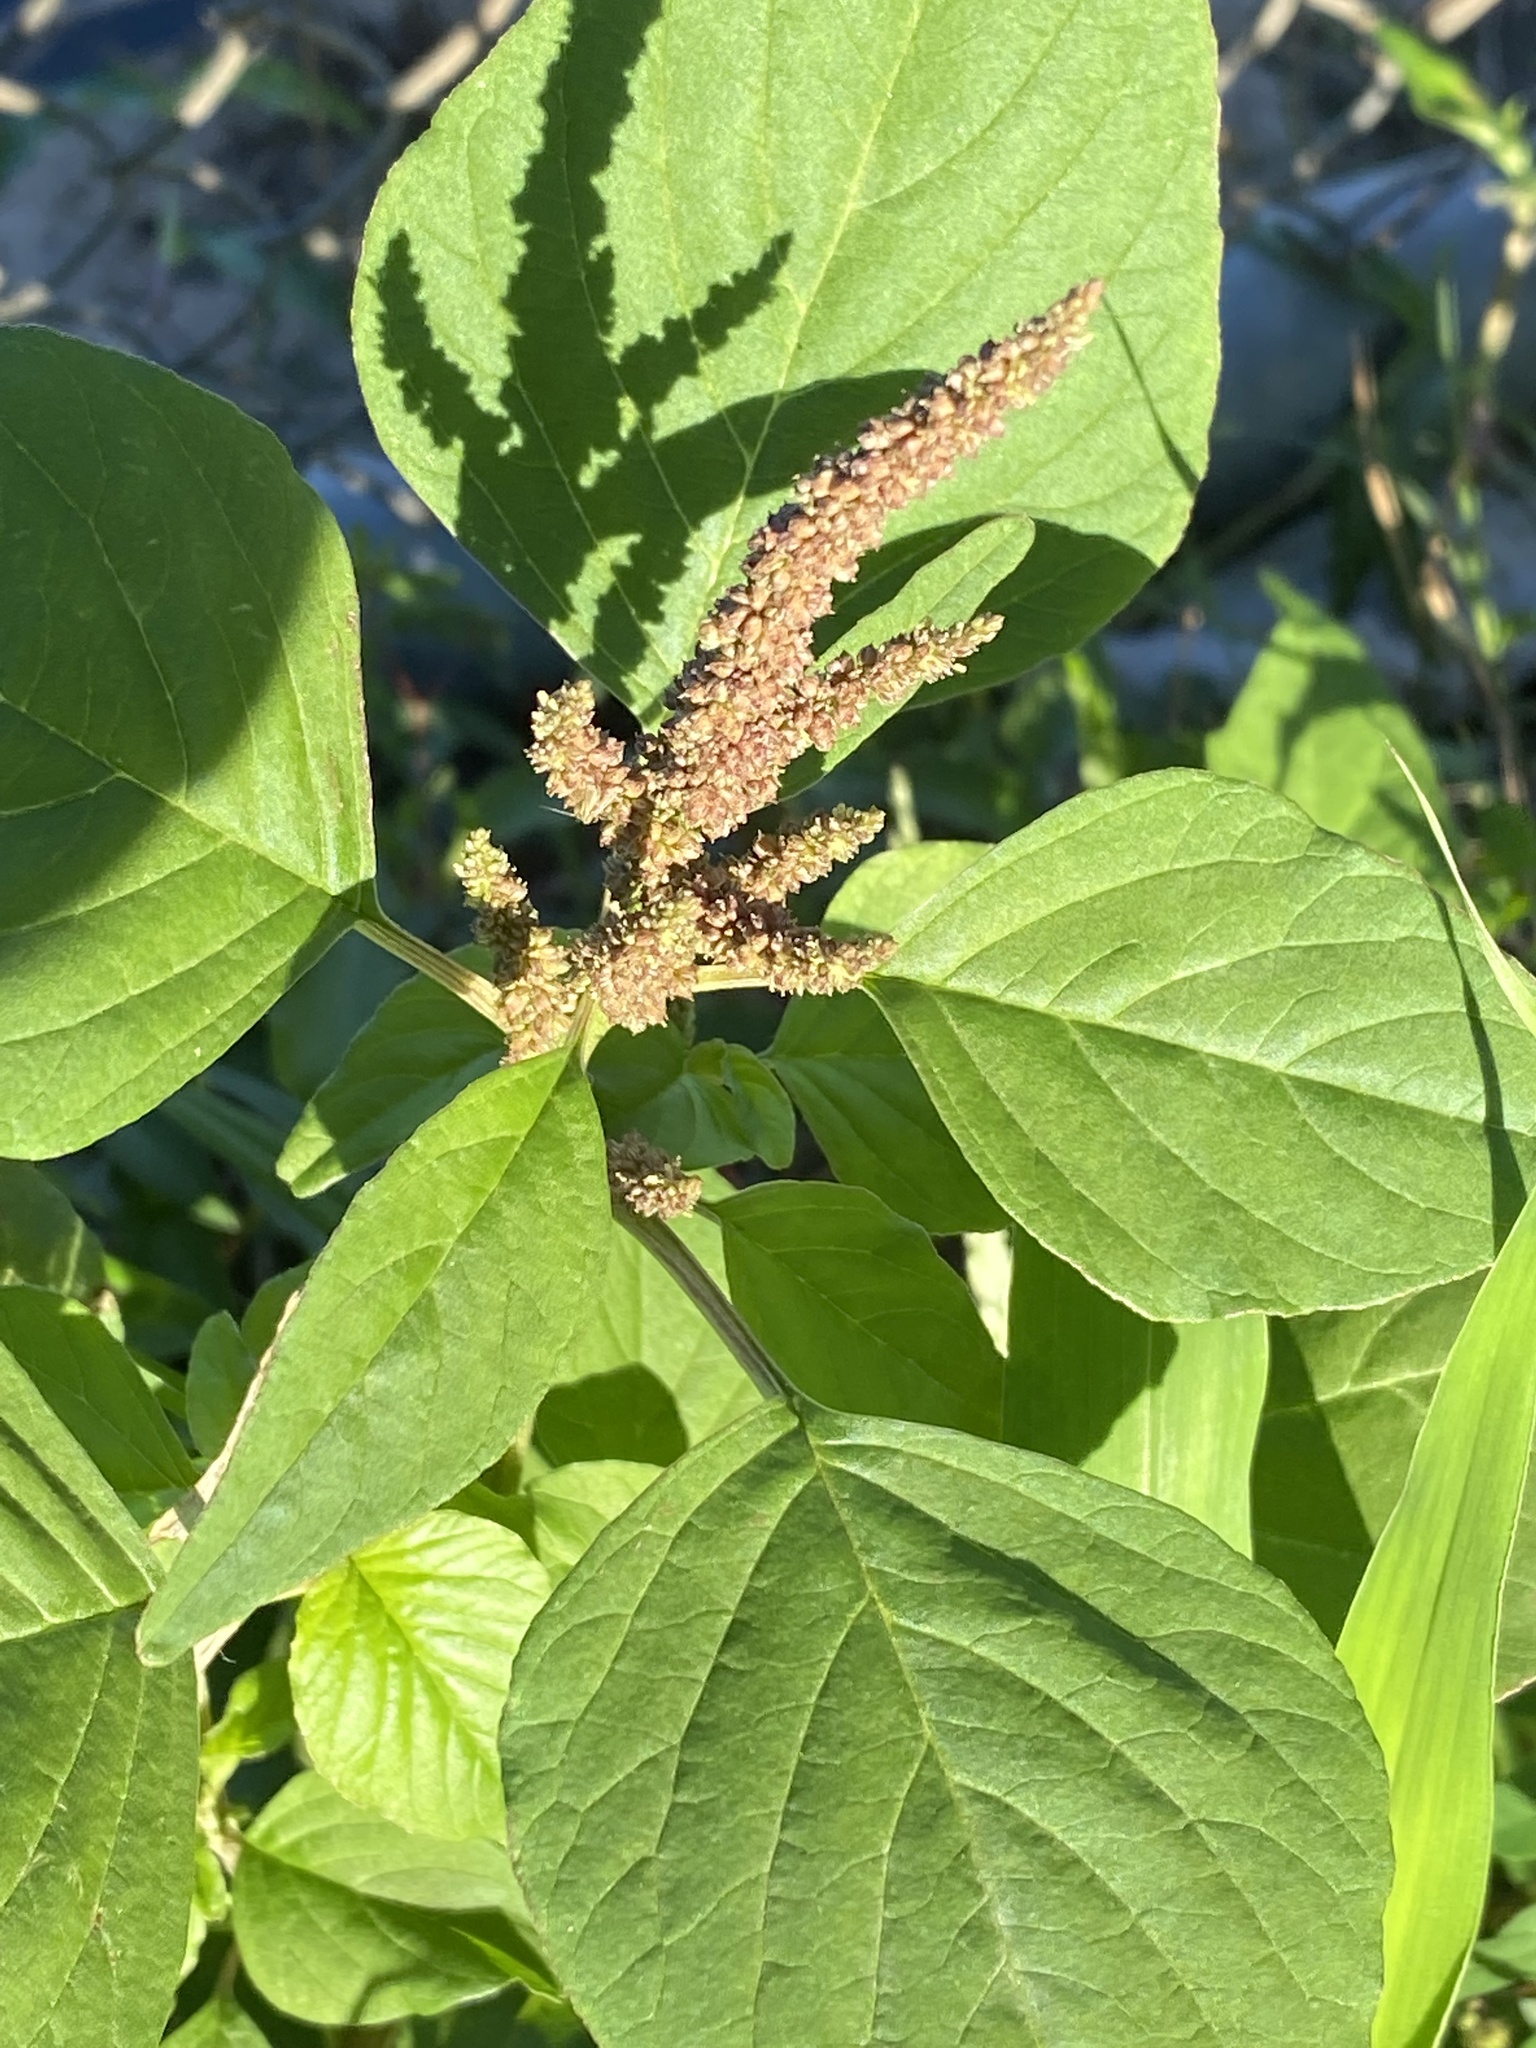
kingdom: Plantae
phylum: Tracheophyta
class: Magnoliopsida
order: Caryophyllales
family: Amaranthaceae
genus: Amaranthus
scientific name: Amaranthus viridis
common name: Slender amaranth
